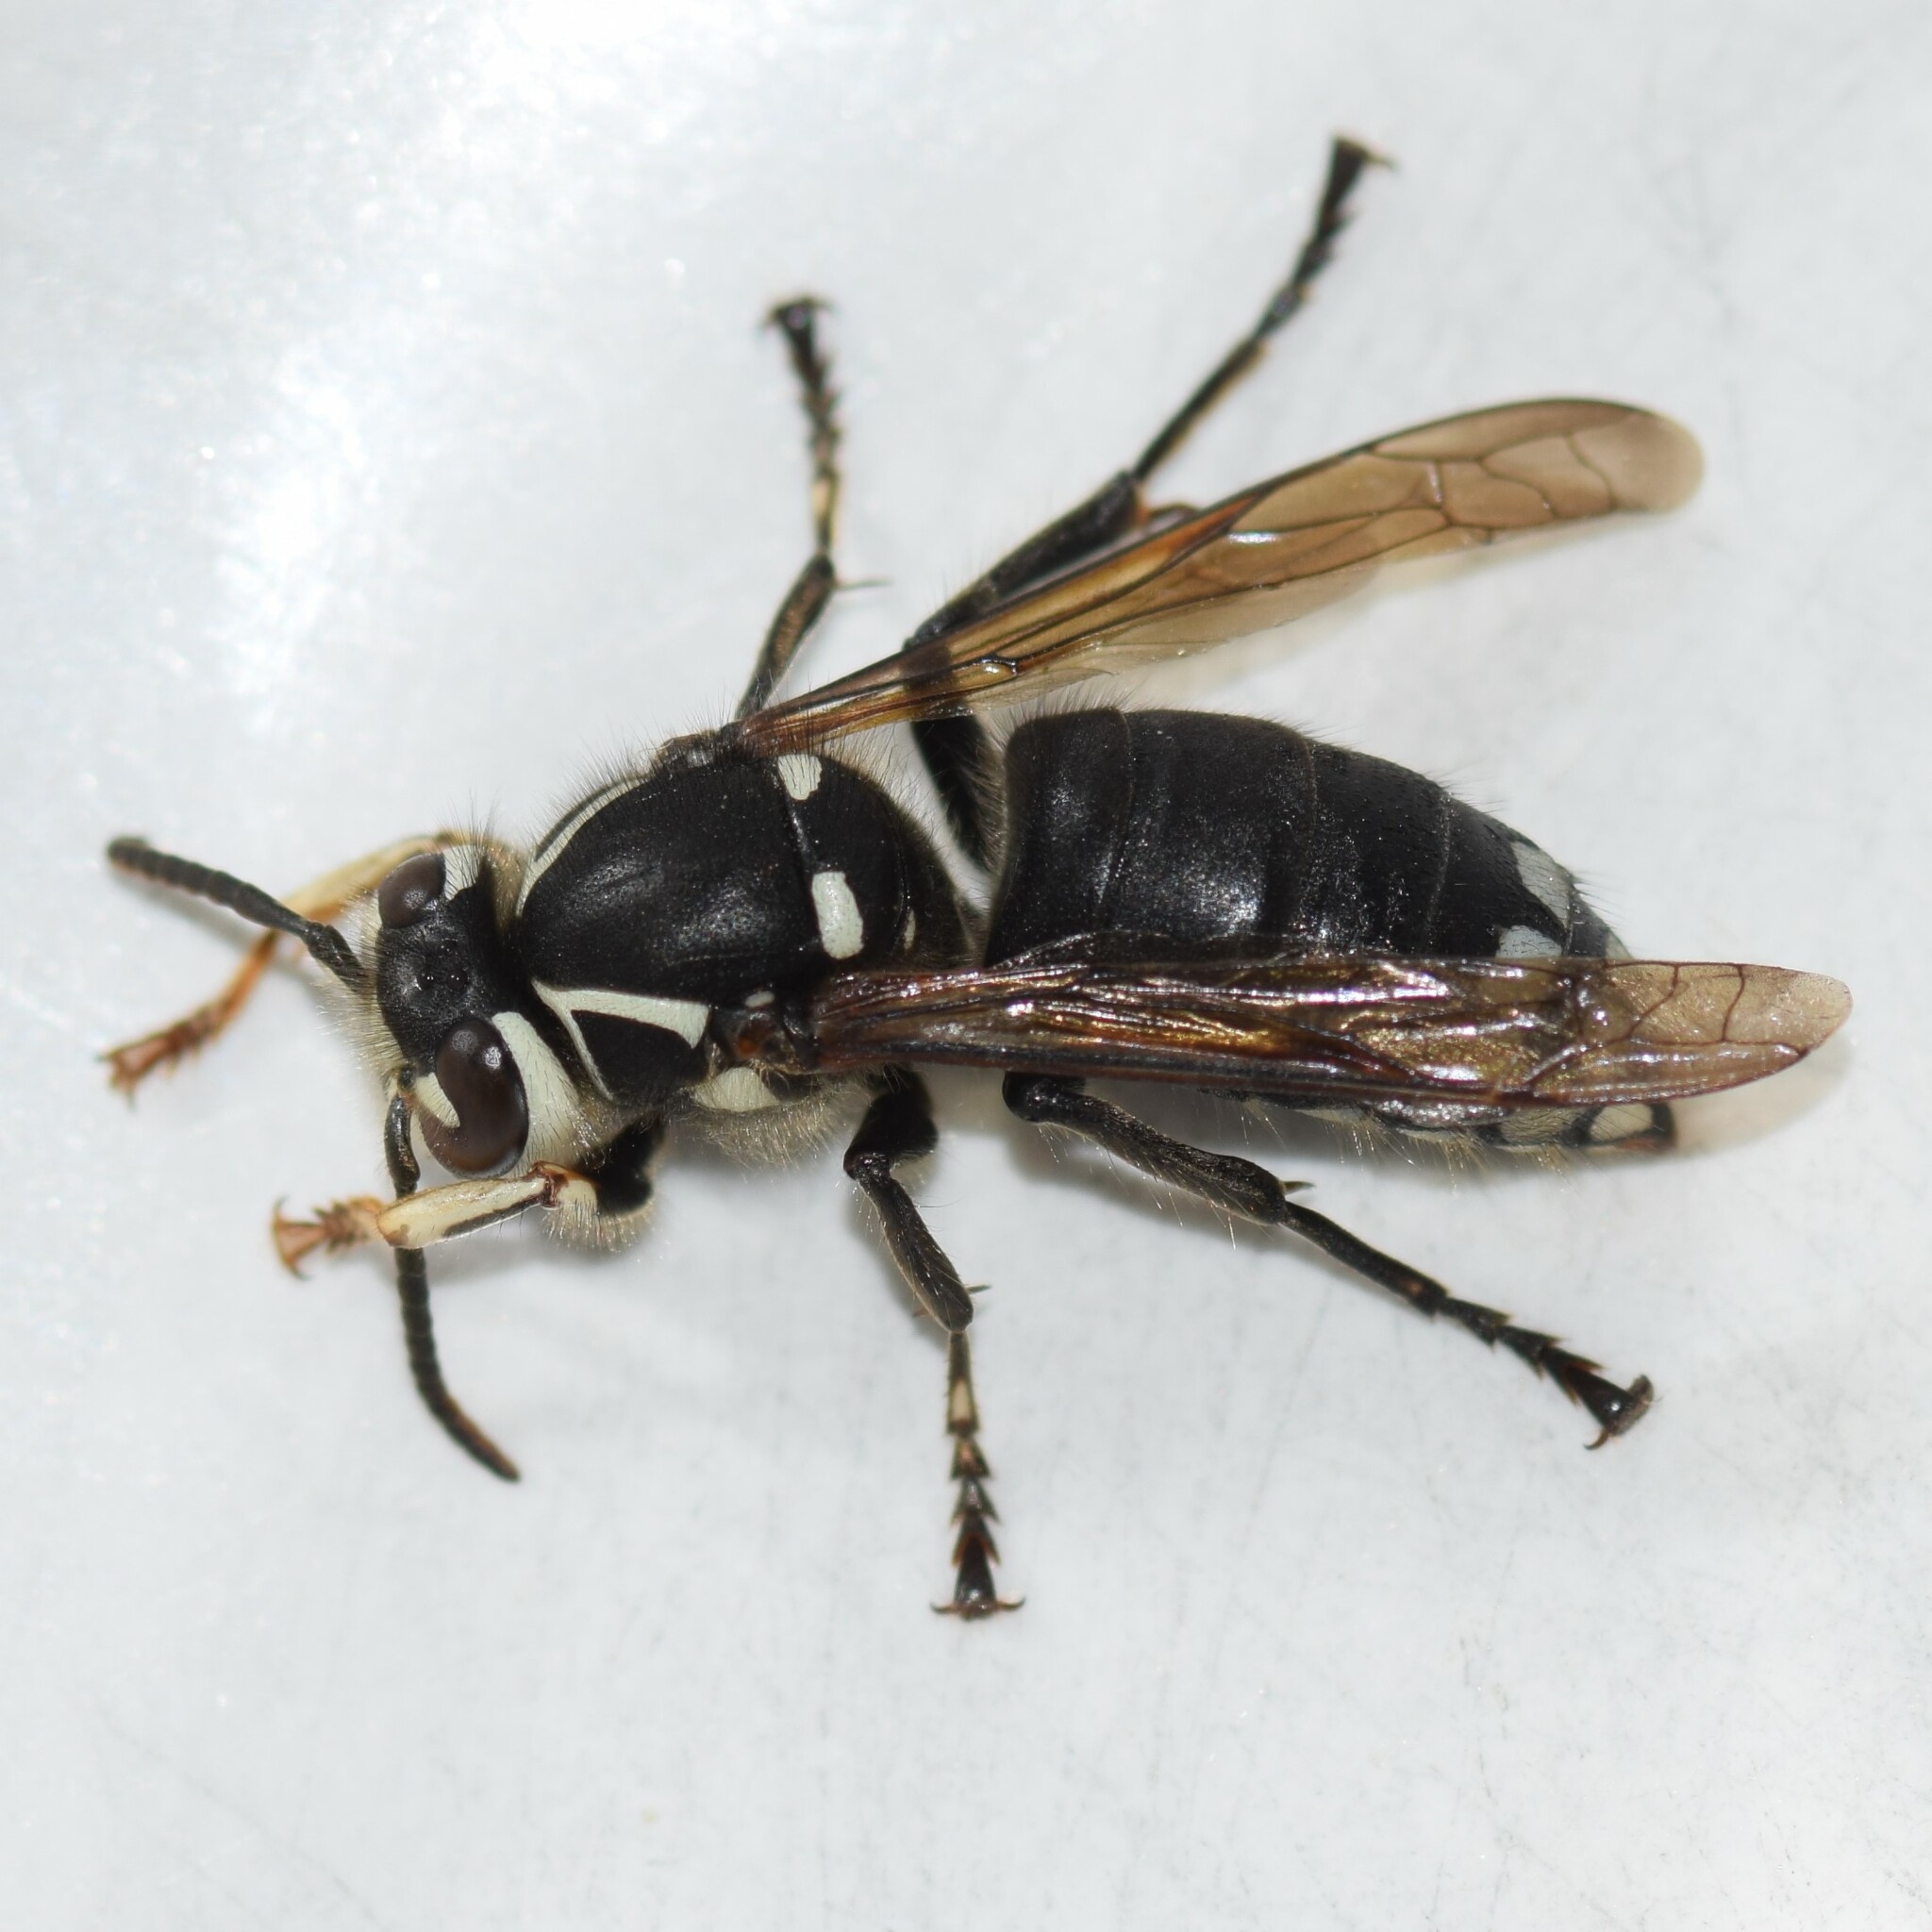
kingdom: Animalia
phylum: Arthropoda
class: Insecta
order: Hymenoptera
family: Vespidae
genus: Dolichovespula
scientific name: Dolichovespula maculata
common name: Bald-faced hornet
